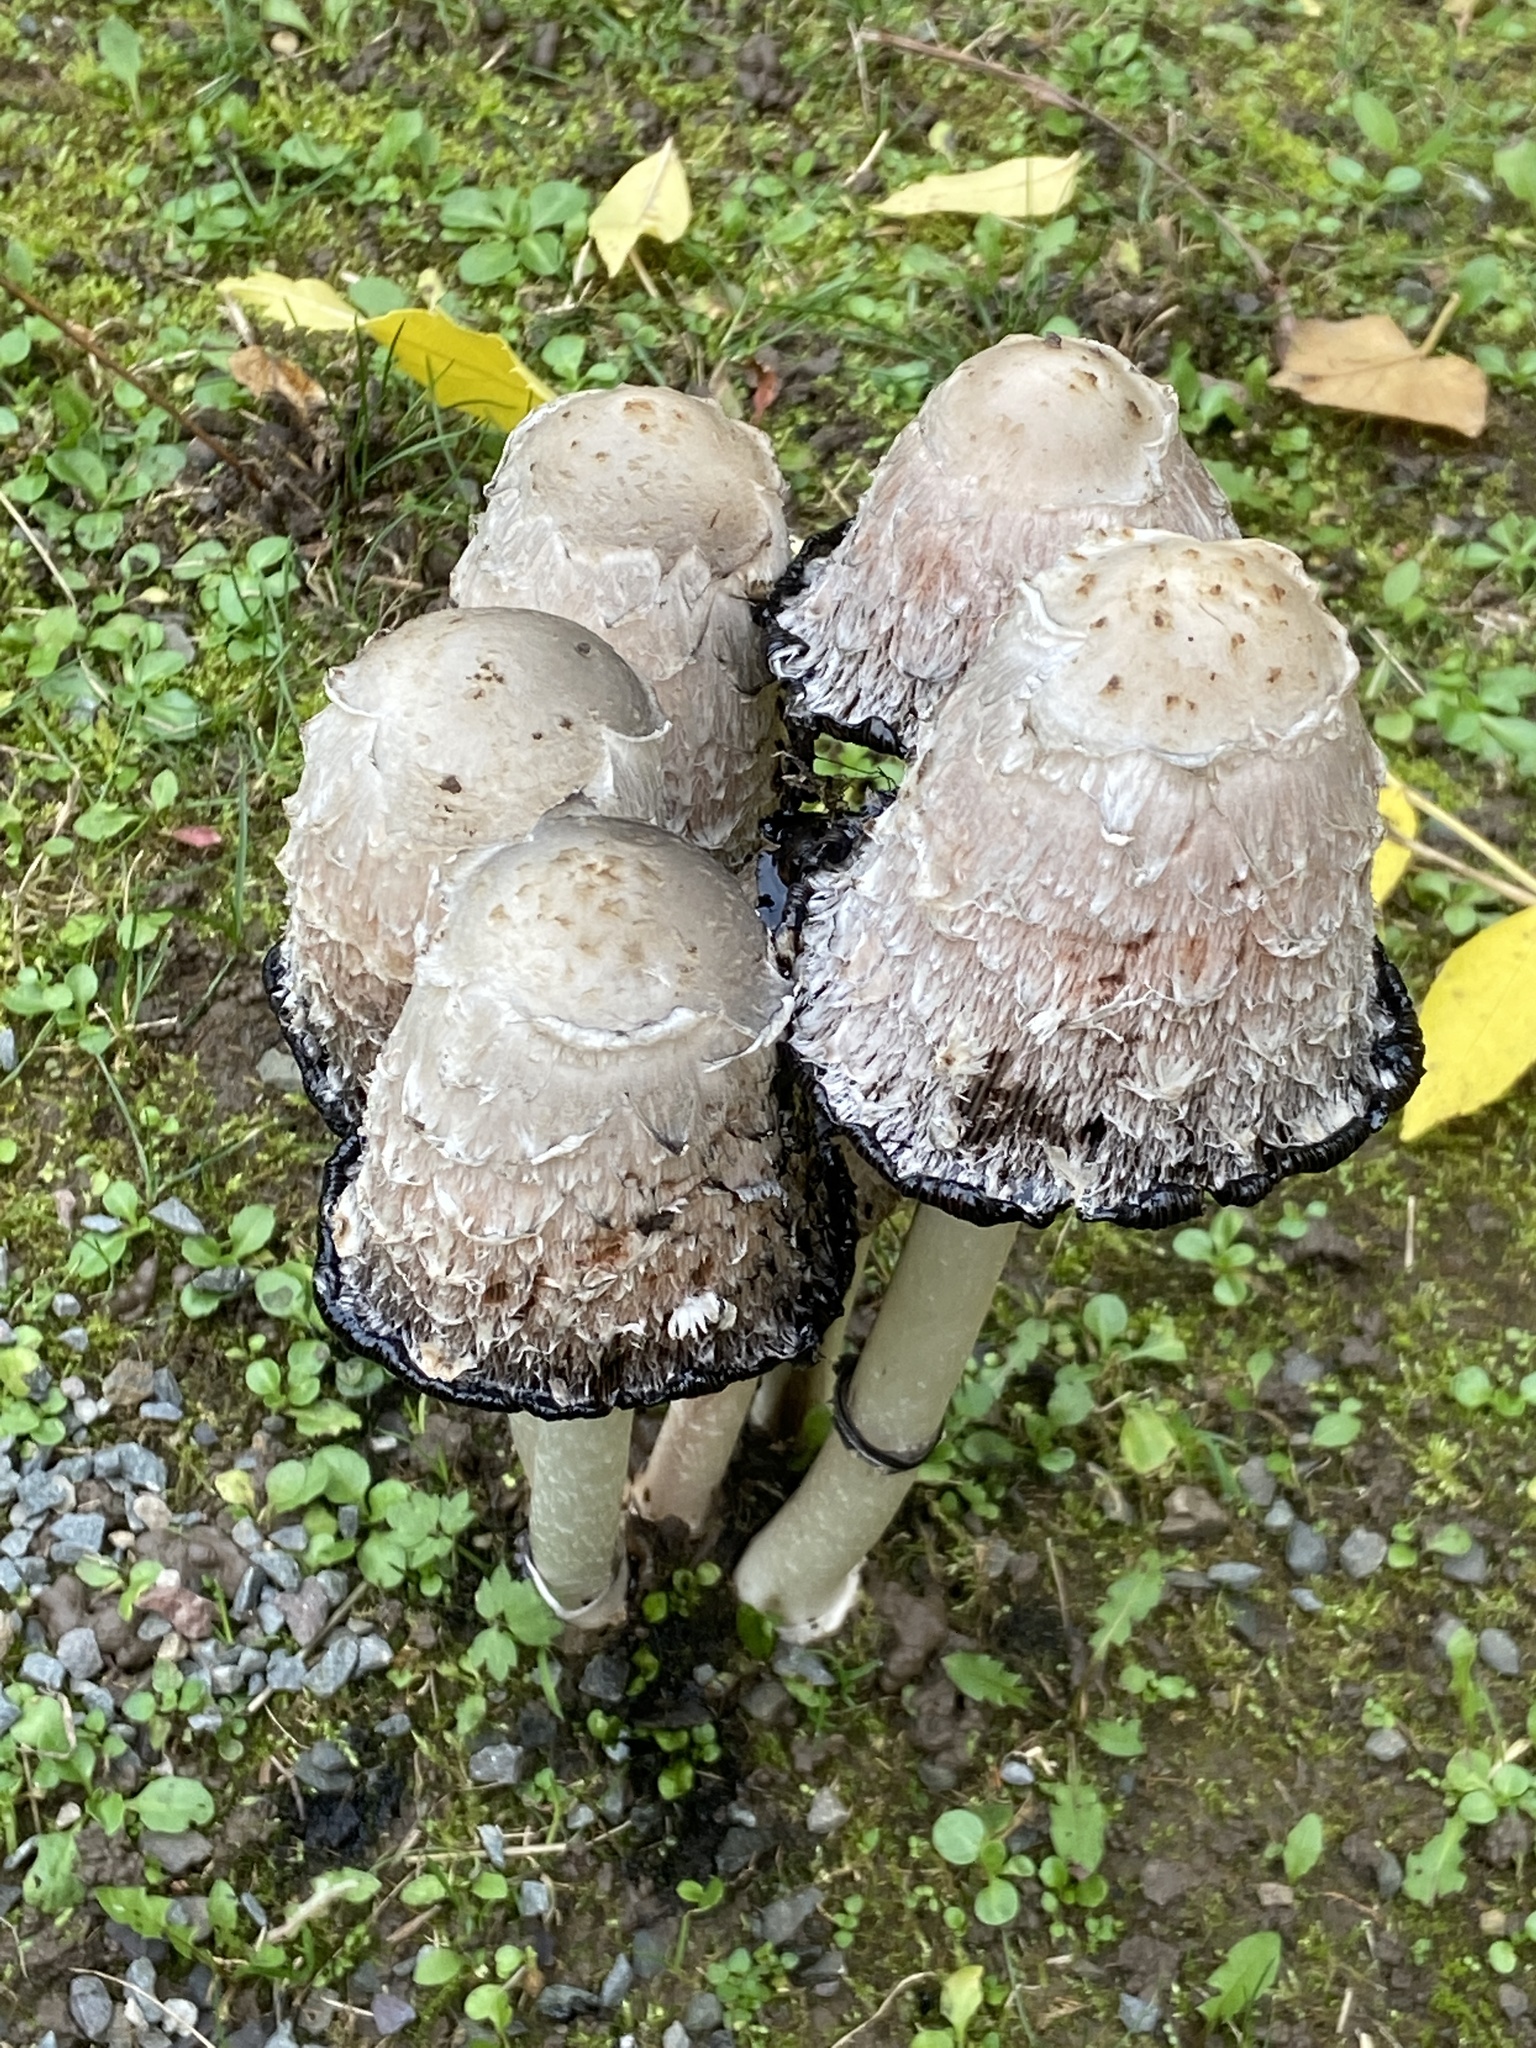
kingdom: Fungi
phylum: Basidiomycota
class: Agaricomycetes
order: Agaricales
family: Agaricaceae
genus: Coprinus
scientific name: Coprinus comatus
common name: Lawyer's wig
